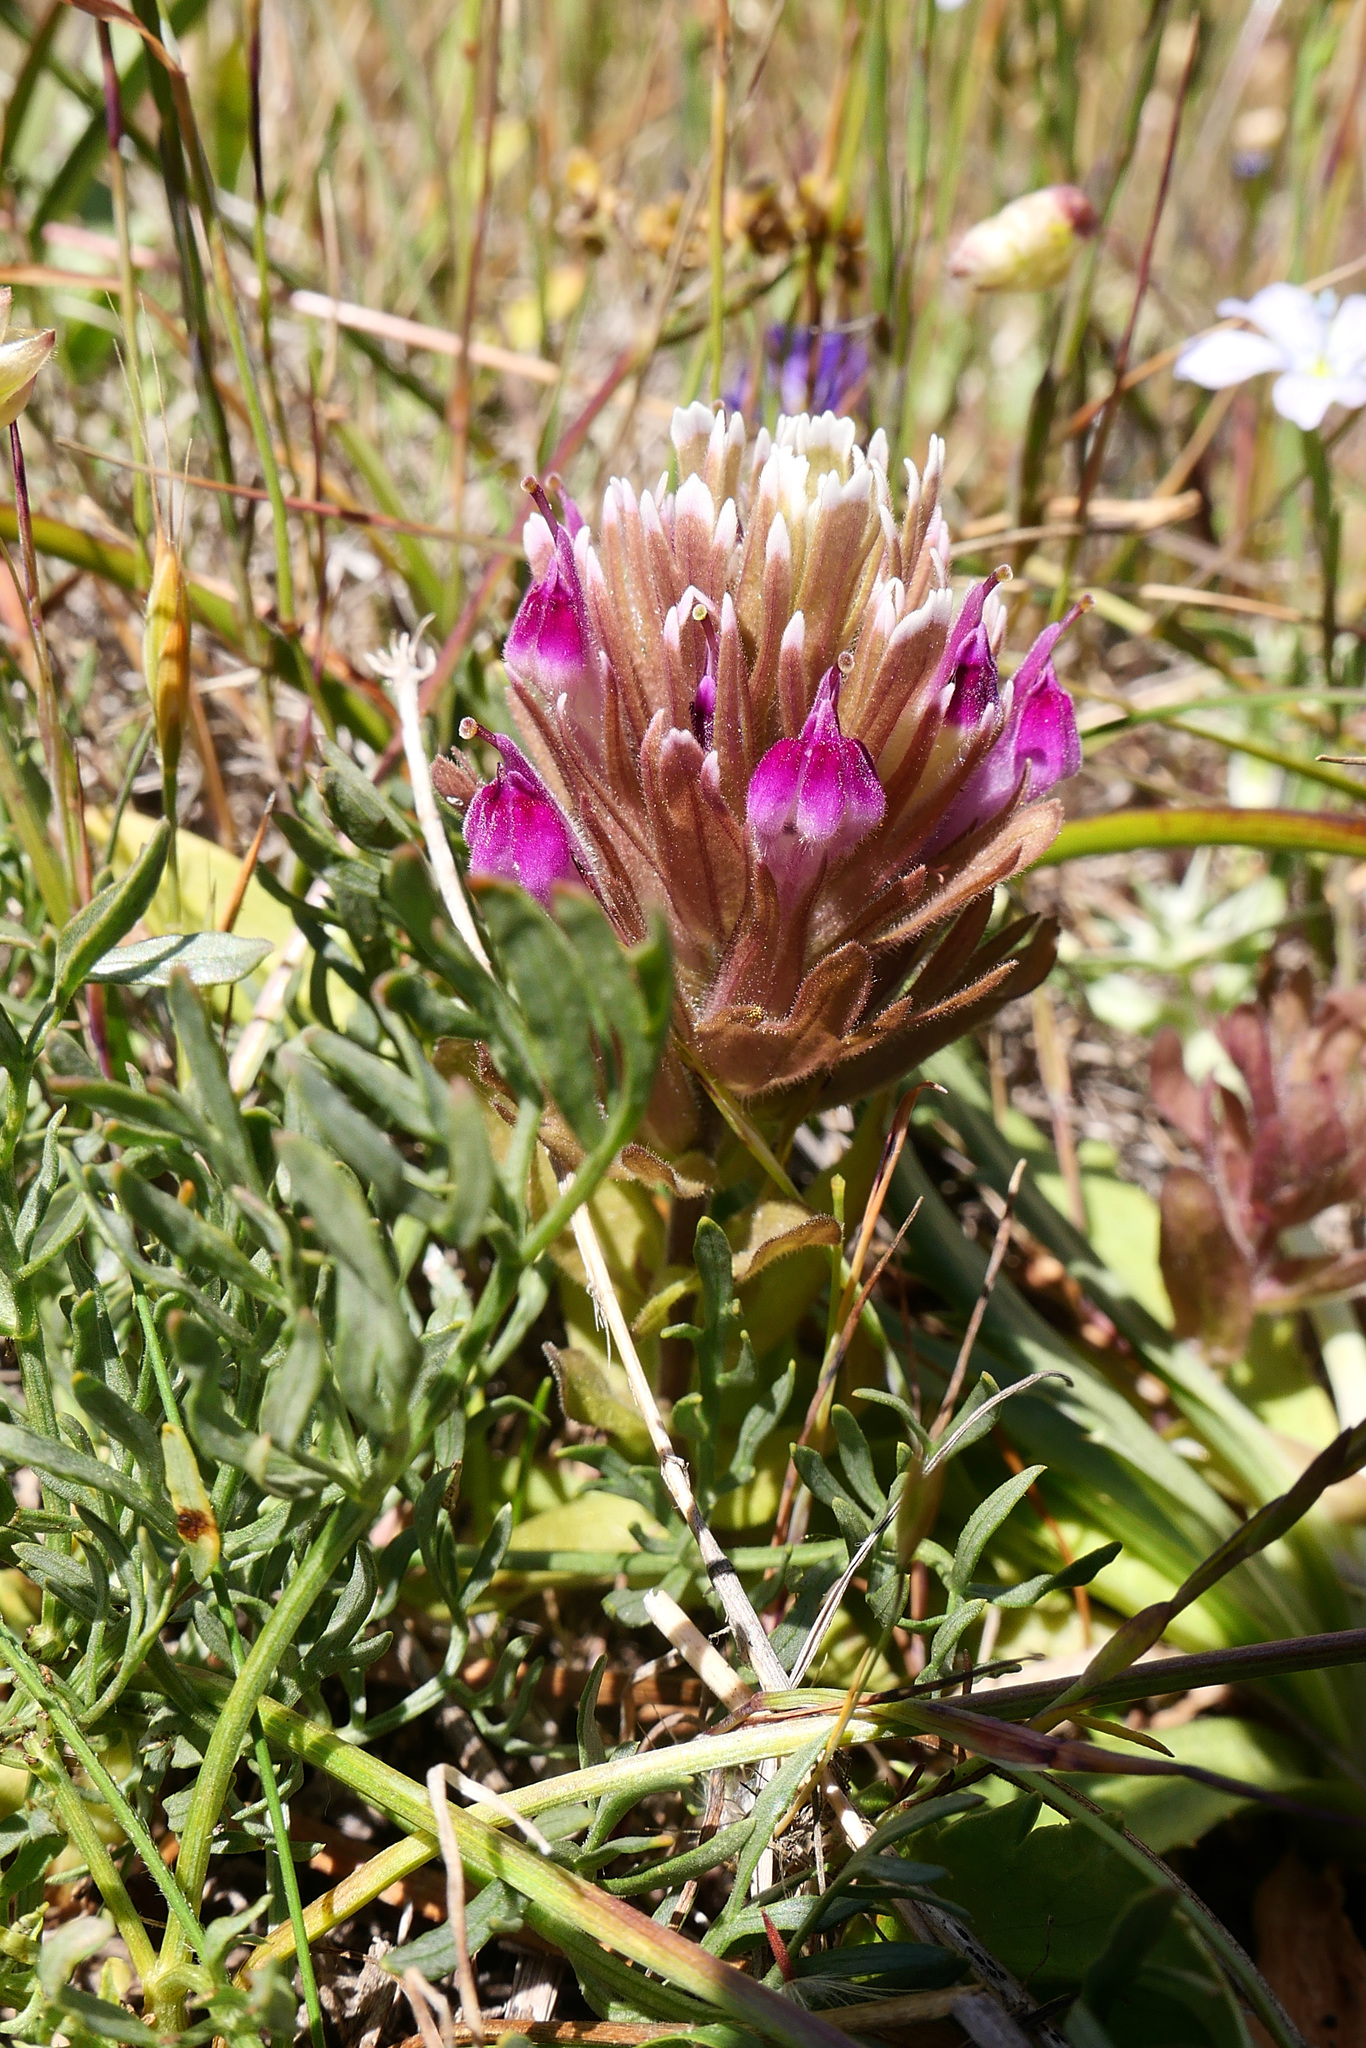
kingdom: Plantae
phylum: Tracheophyta
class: Magnoliopsida
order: Lamiales
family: Orobanchaceae
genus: Castilleja
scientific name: Castilleja ambigua
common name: Johnny-nip
